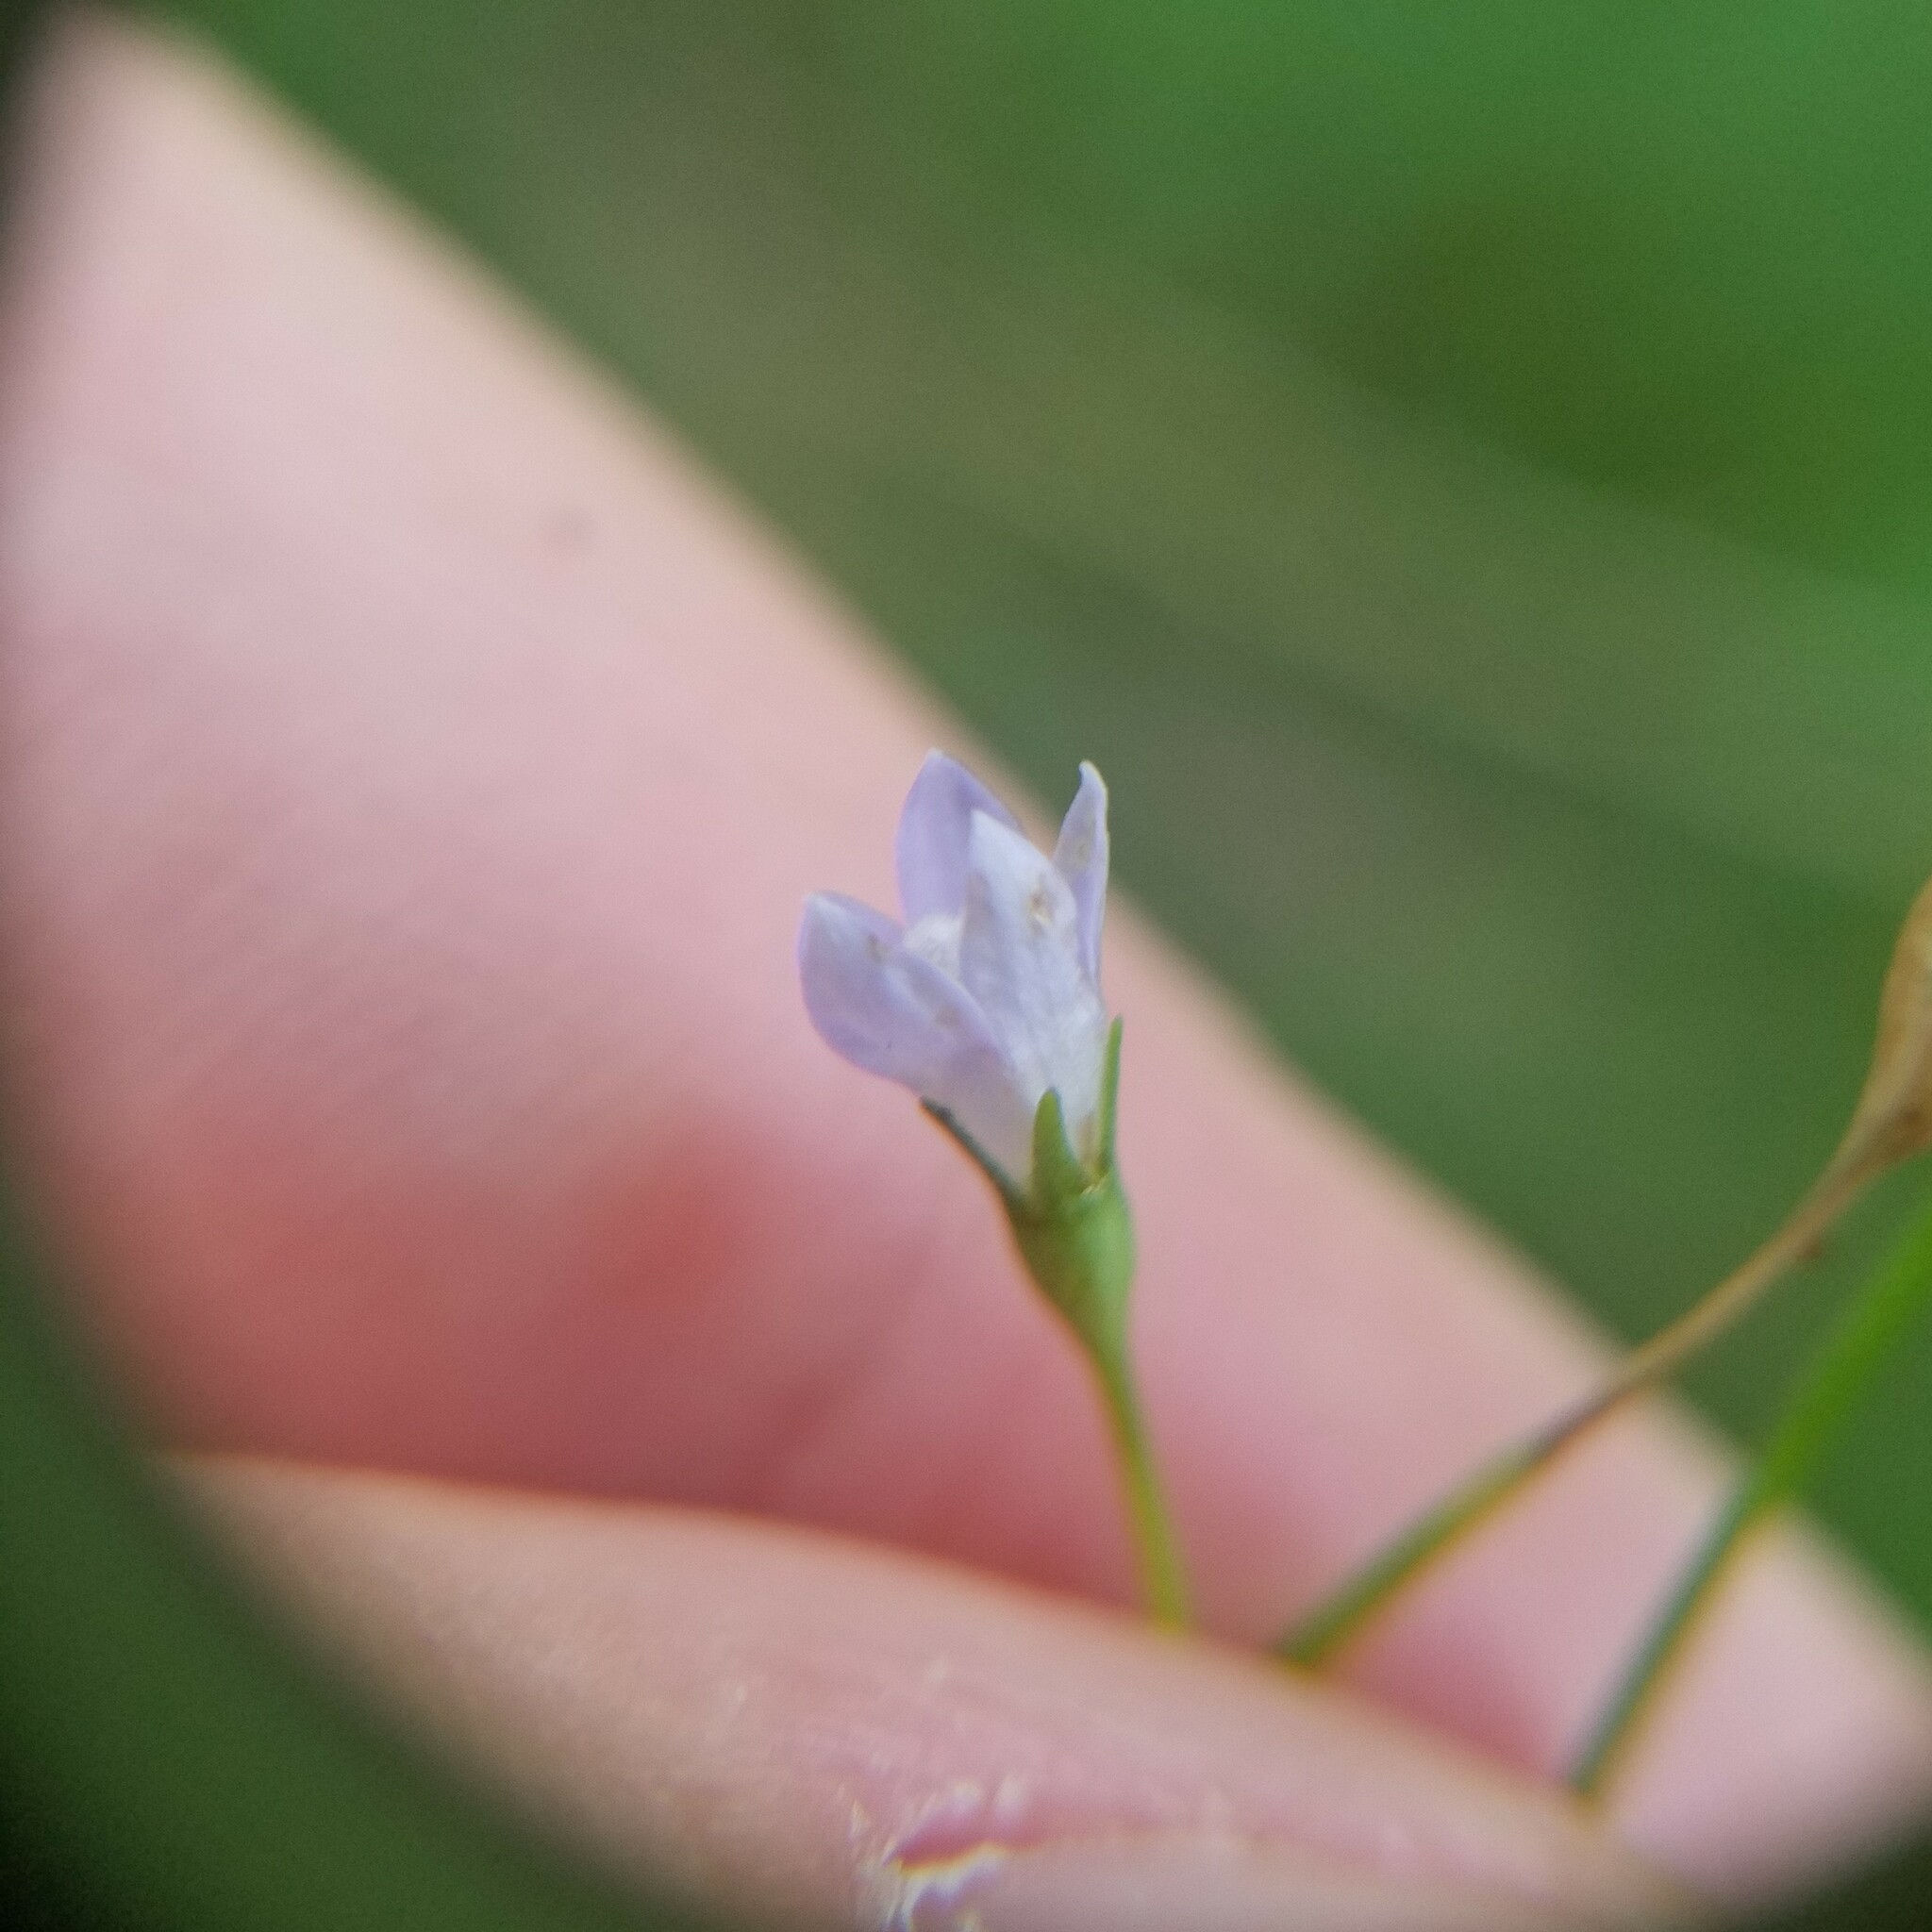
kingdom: Plantae
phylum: Tracheophyta
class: Magnoliopsida
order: Asterales
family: Campanulaceae
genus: Wahlenbergia
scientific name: Wahlenbergia marginata
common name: Southern rockbell
